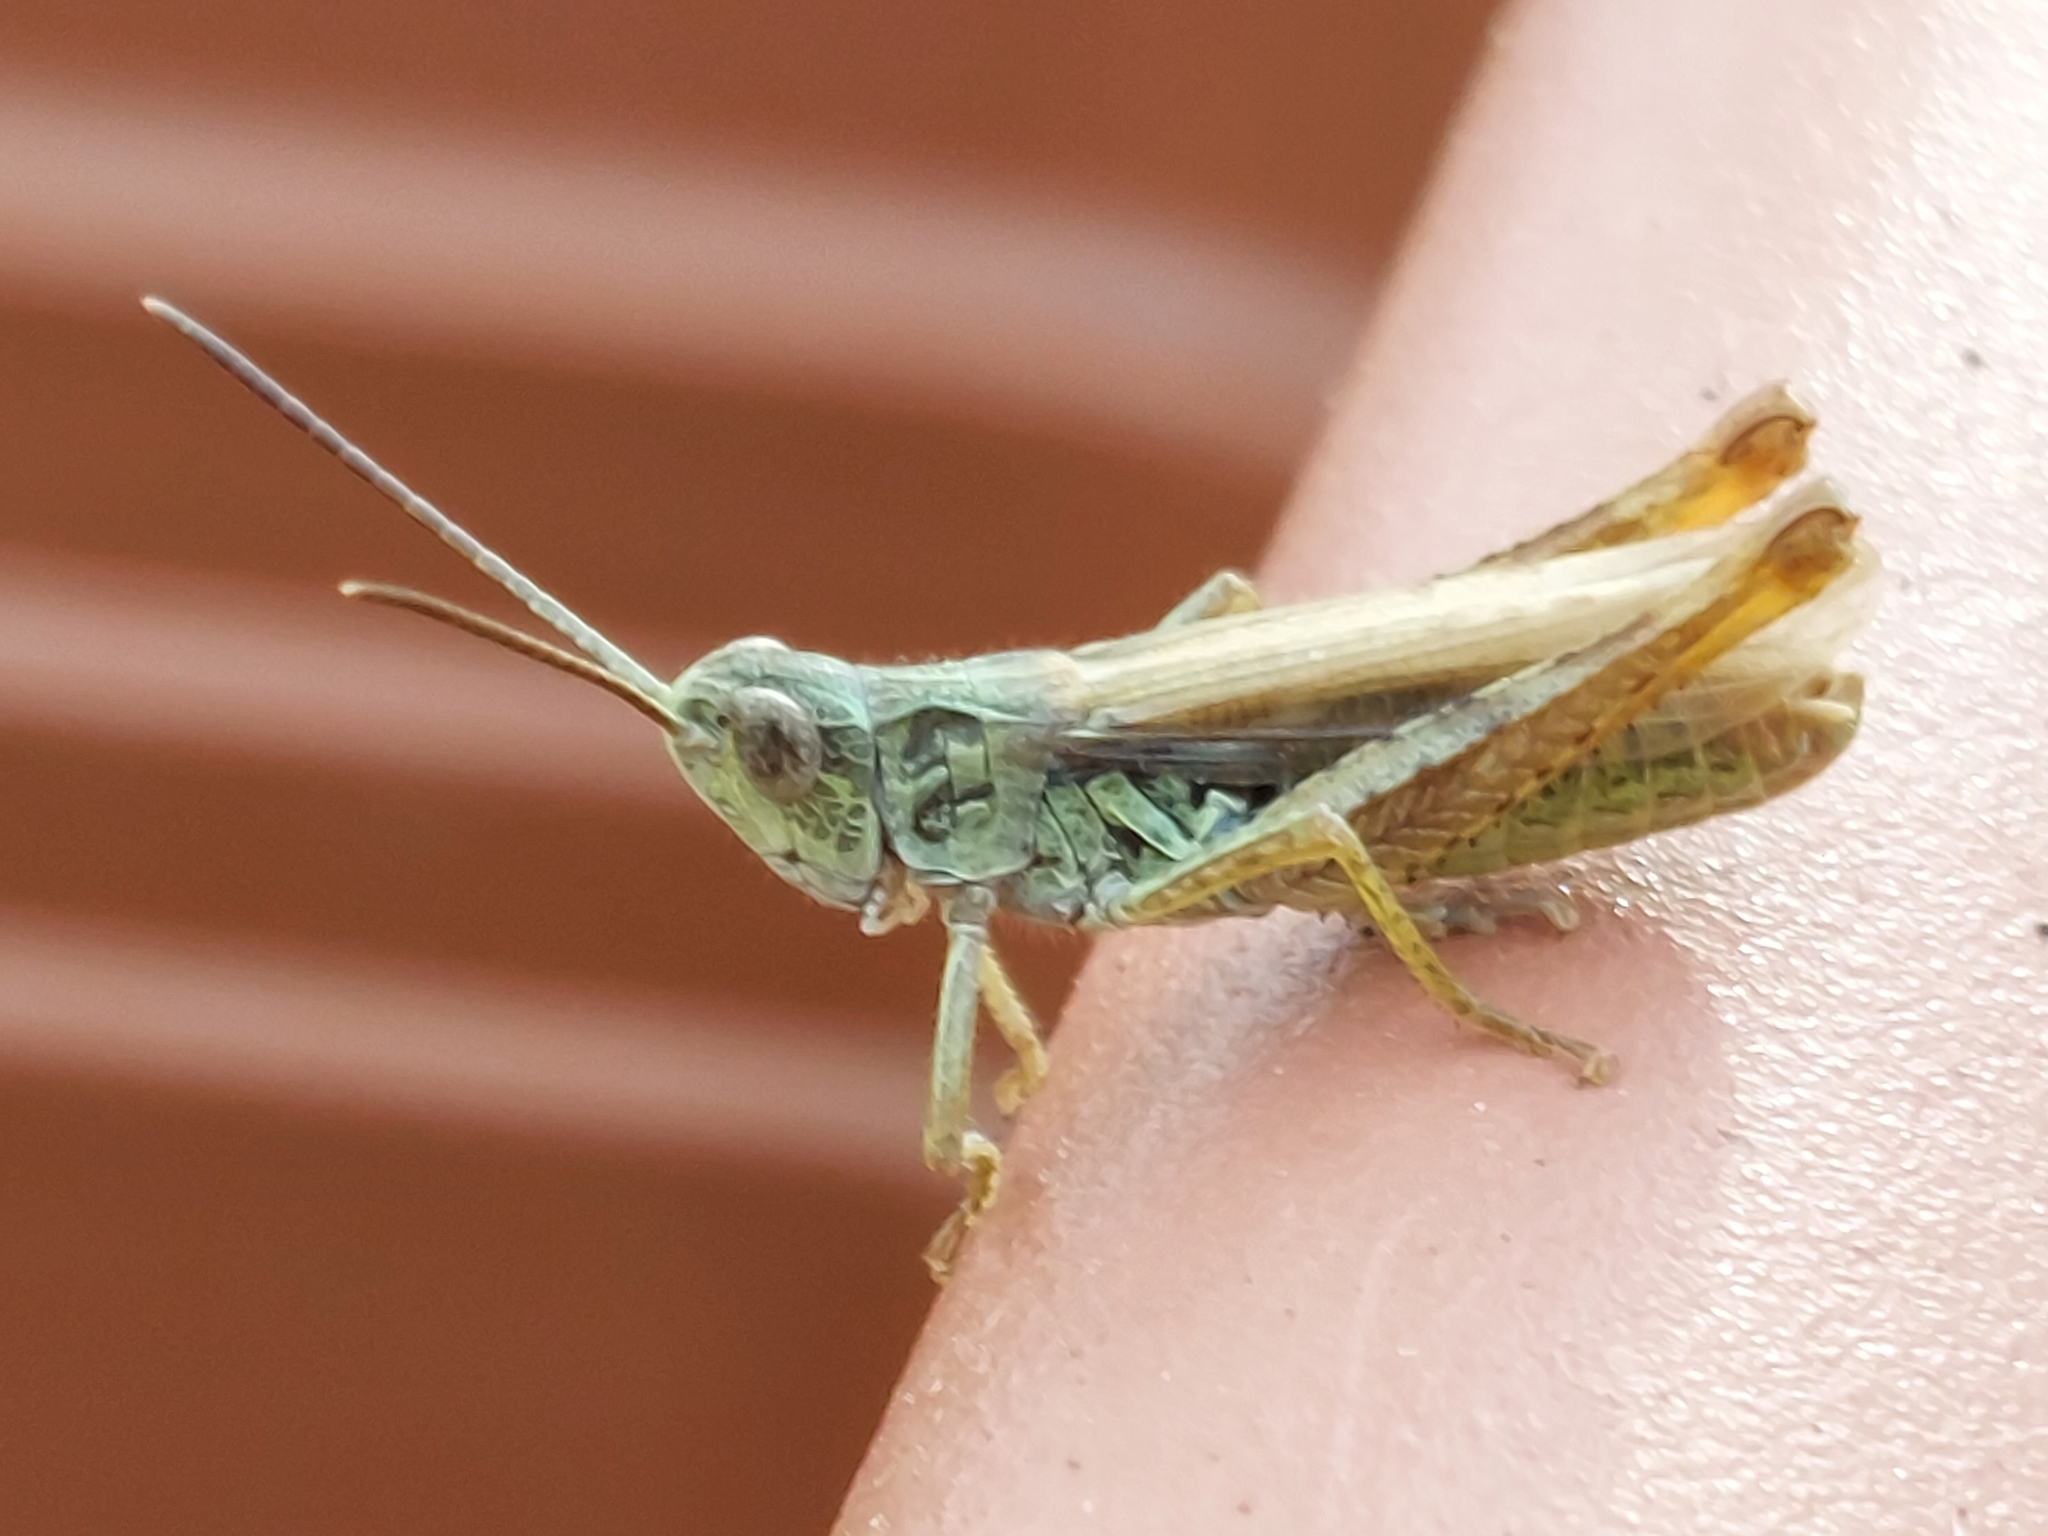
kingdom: Animalia
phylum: Arthropoda
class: Insecta
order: Orthoptera
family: Acrididae
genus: Chorthippus
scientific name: Chorthippus apricarius
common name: Upland field grasshopper
